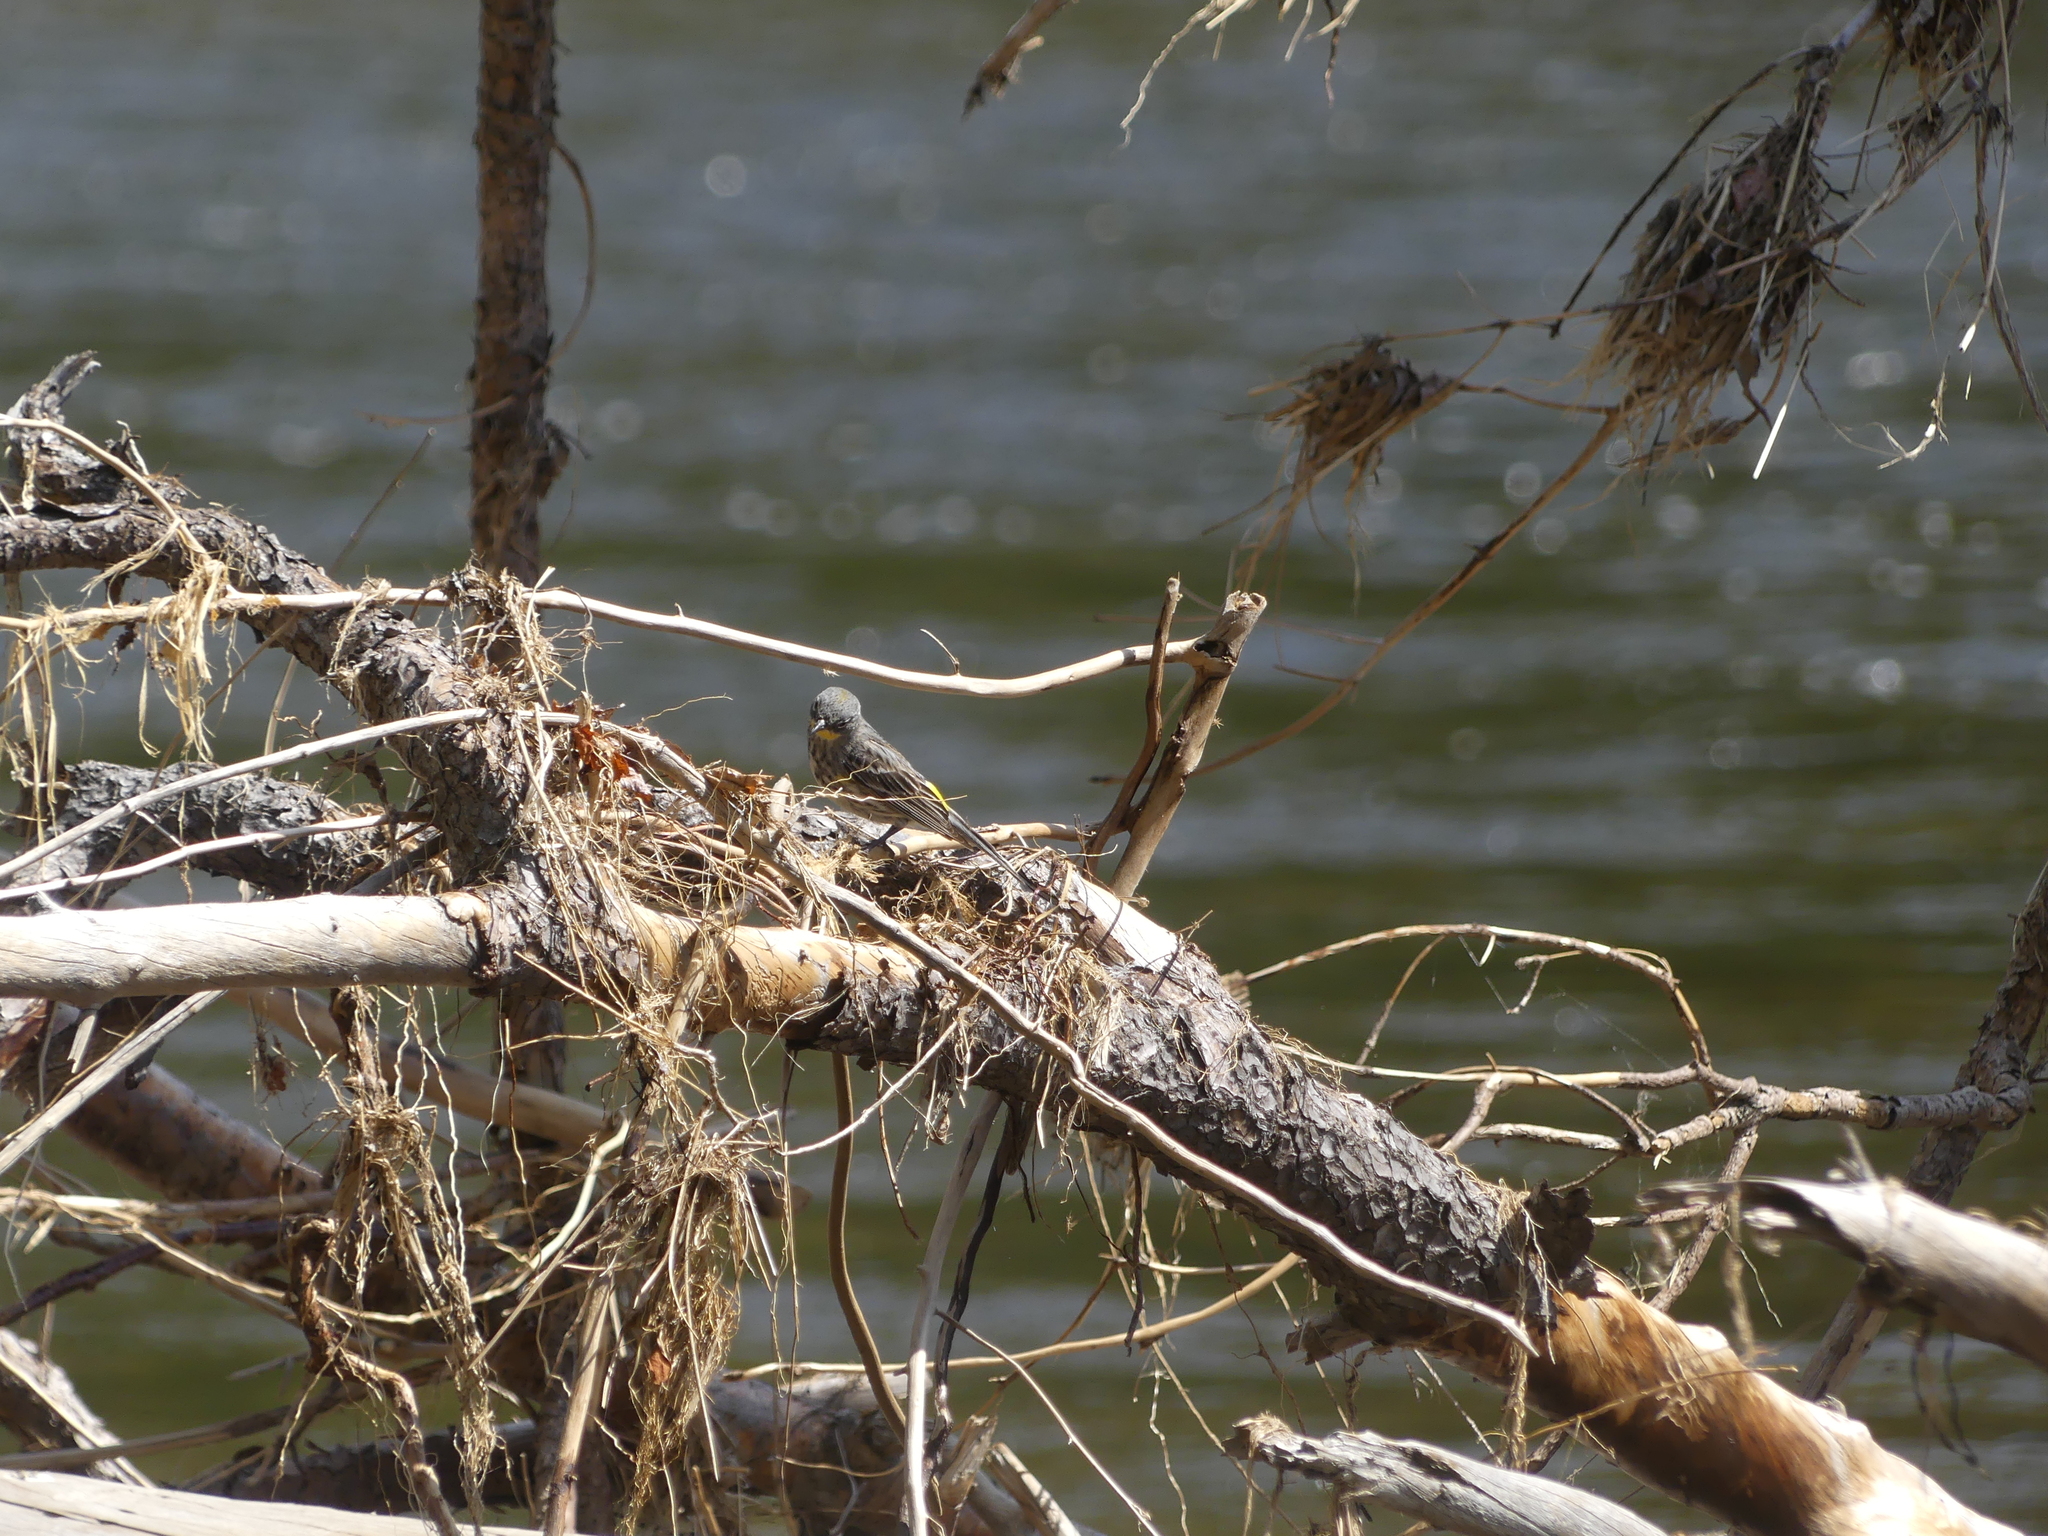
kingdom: Animalia
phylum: Chordata
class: Aves
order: Passeriformes
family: Parulidae
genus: Setophaga
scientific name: Setophaga coronata
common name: Myrtle warbler
